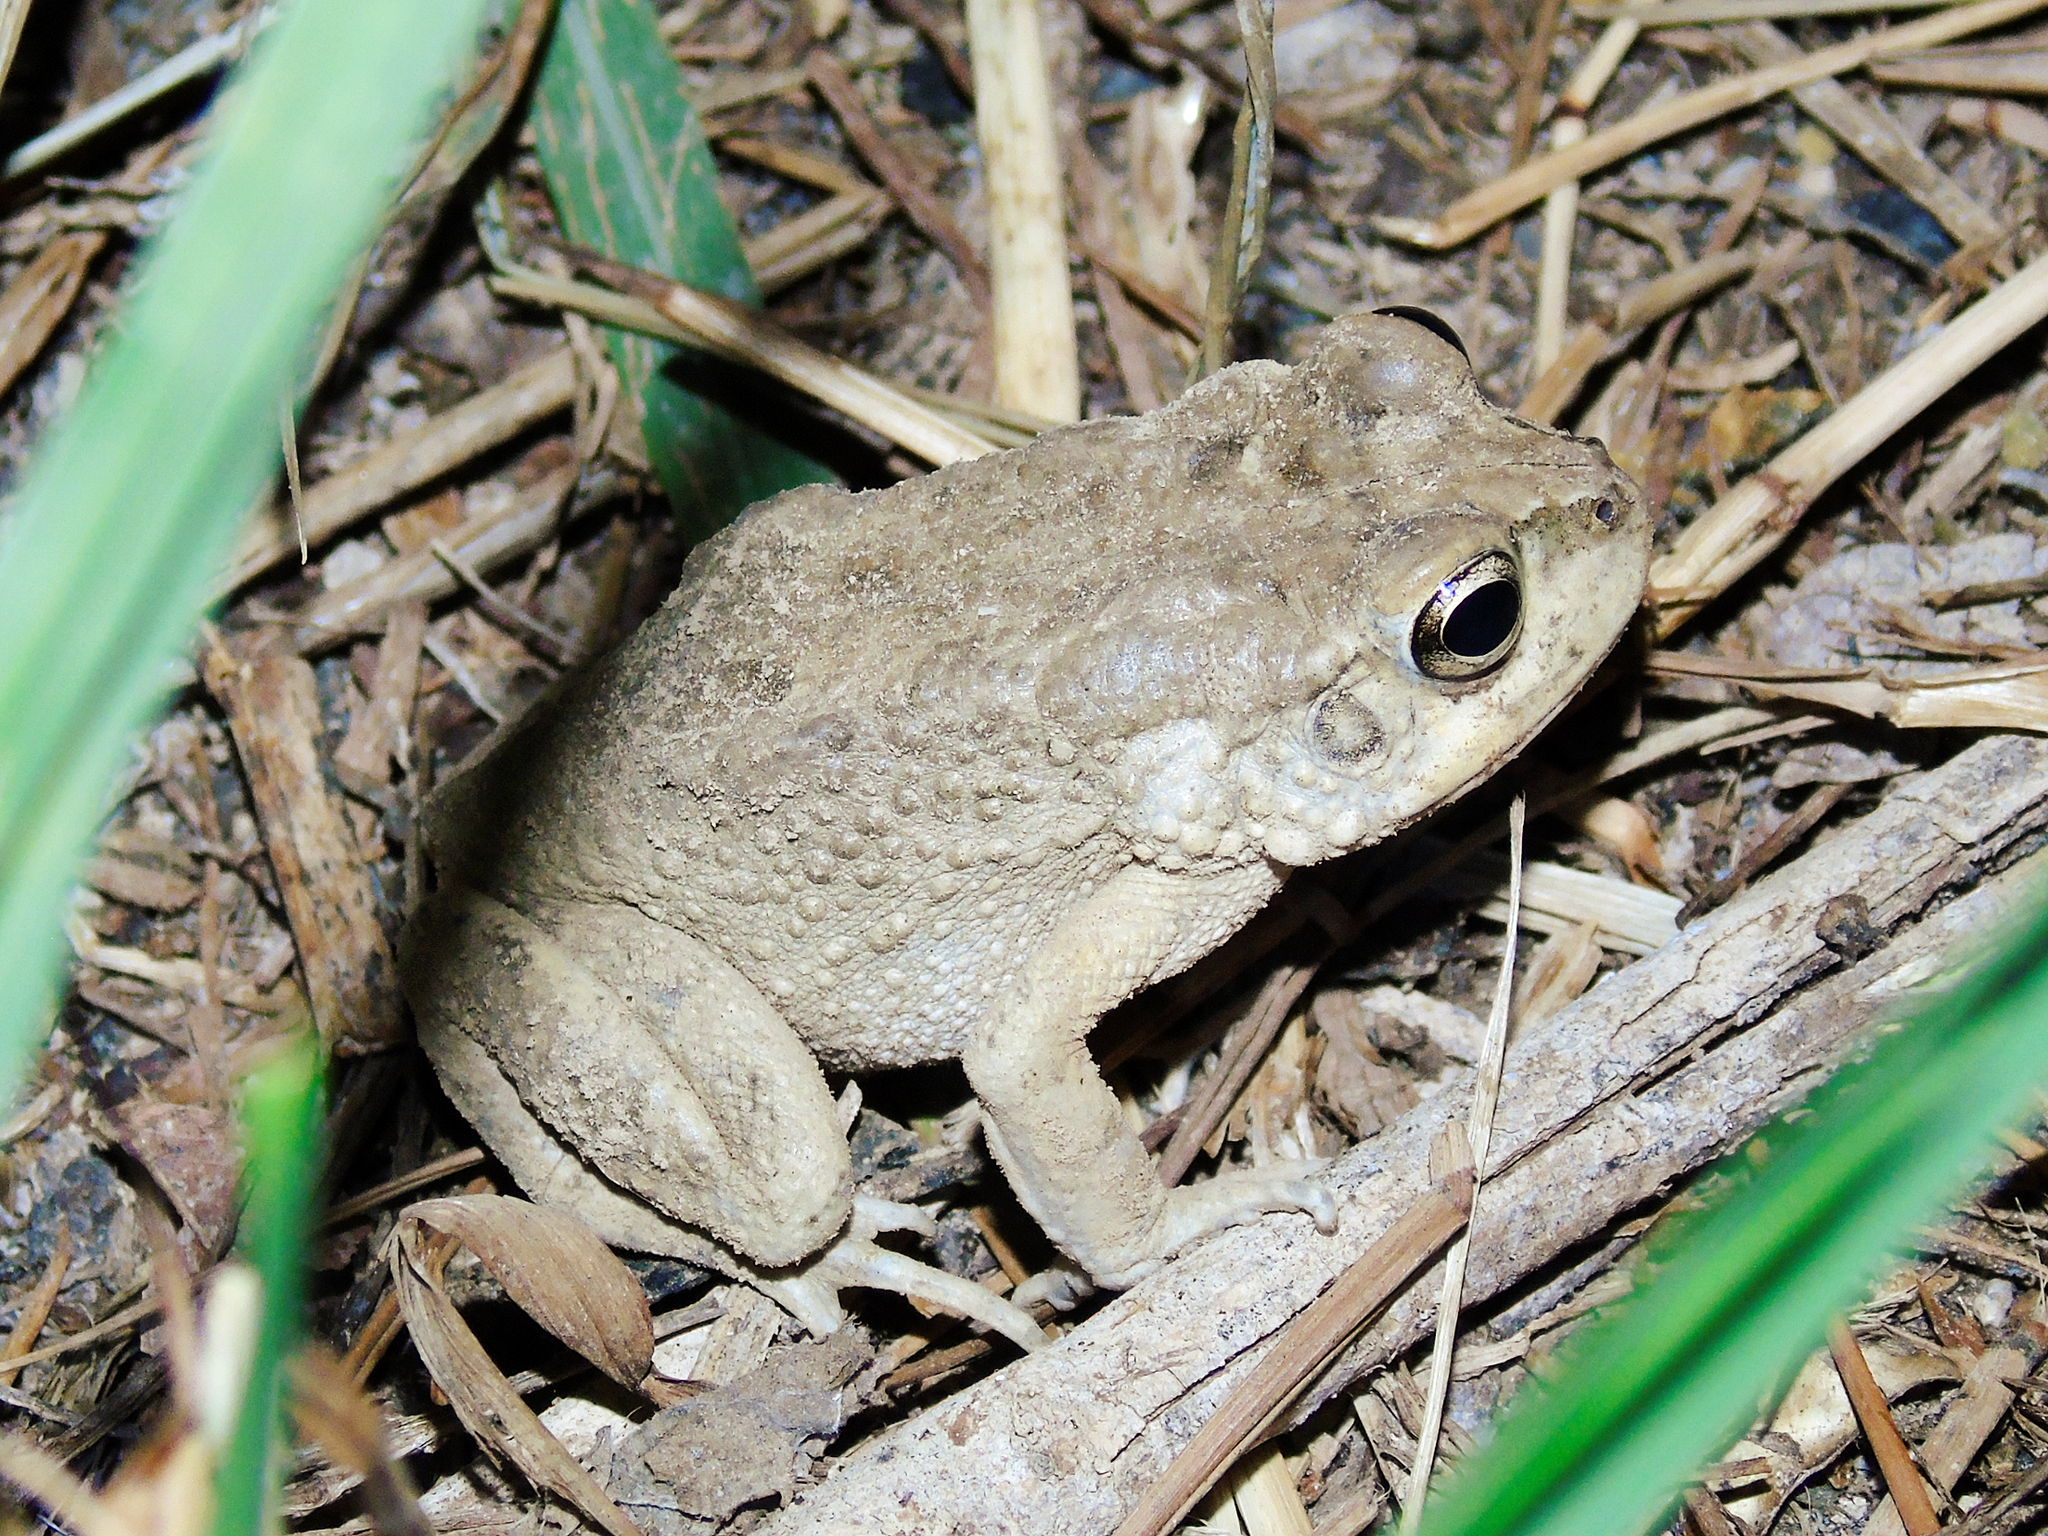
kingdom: Animalia
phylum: Chordata
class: Amphibia
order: Anura
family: Bufonidae
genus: Sclerophrys
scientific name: Sclerophrys arabica
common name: Arabian toad
